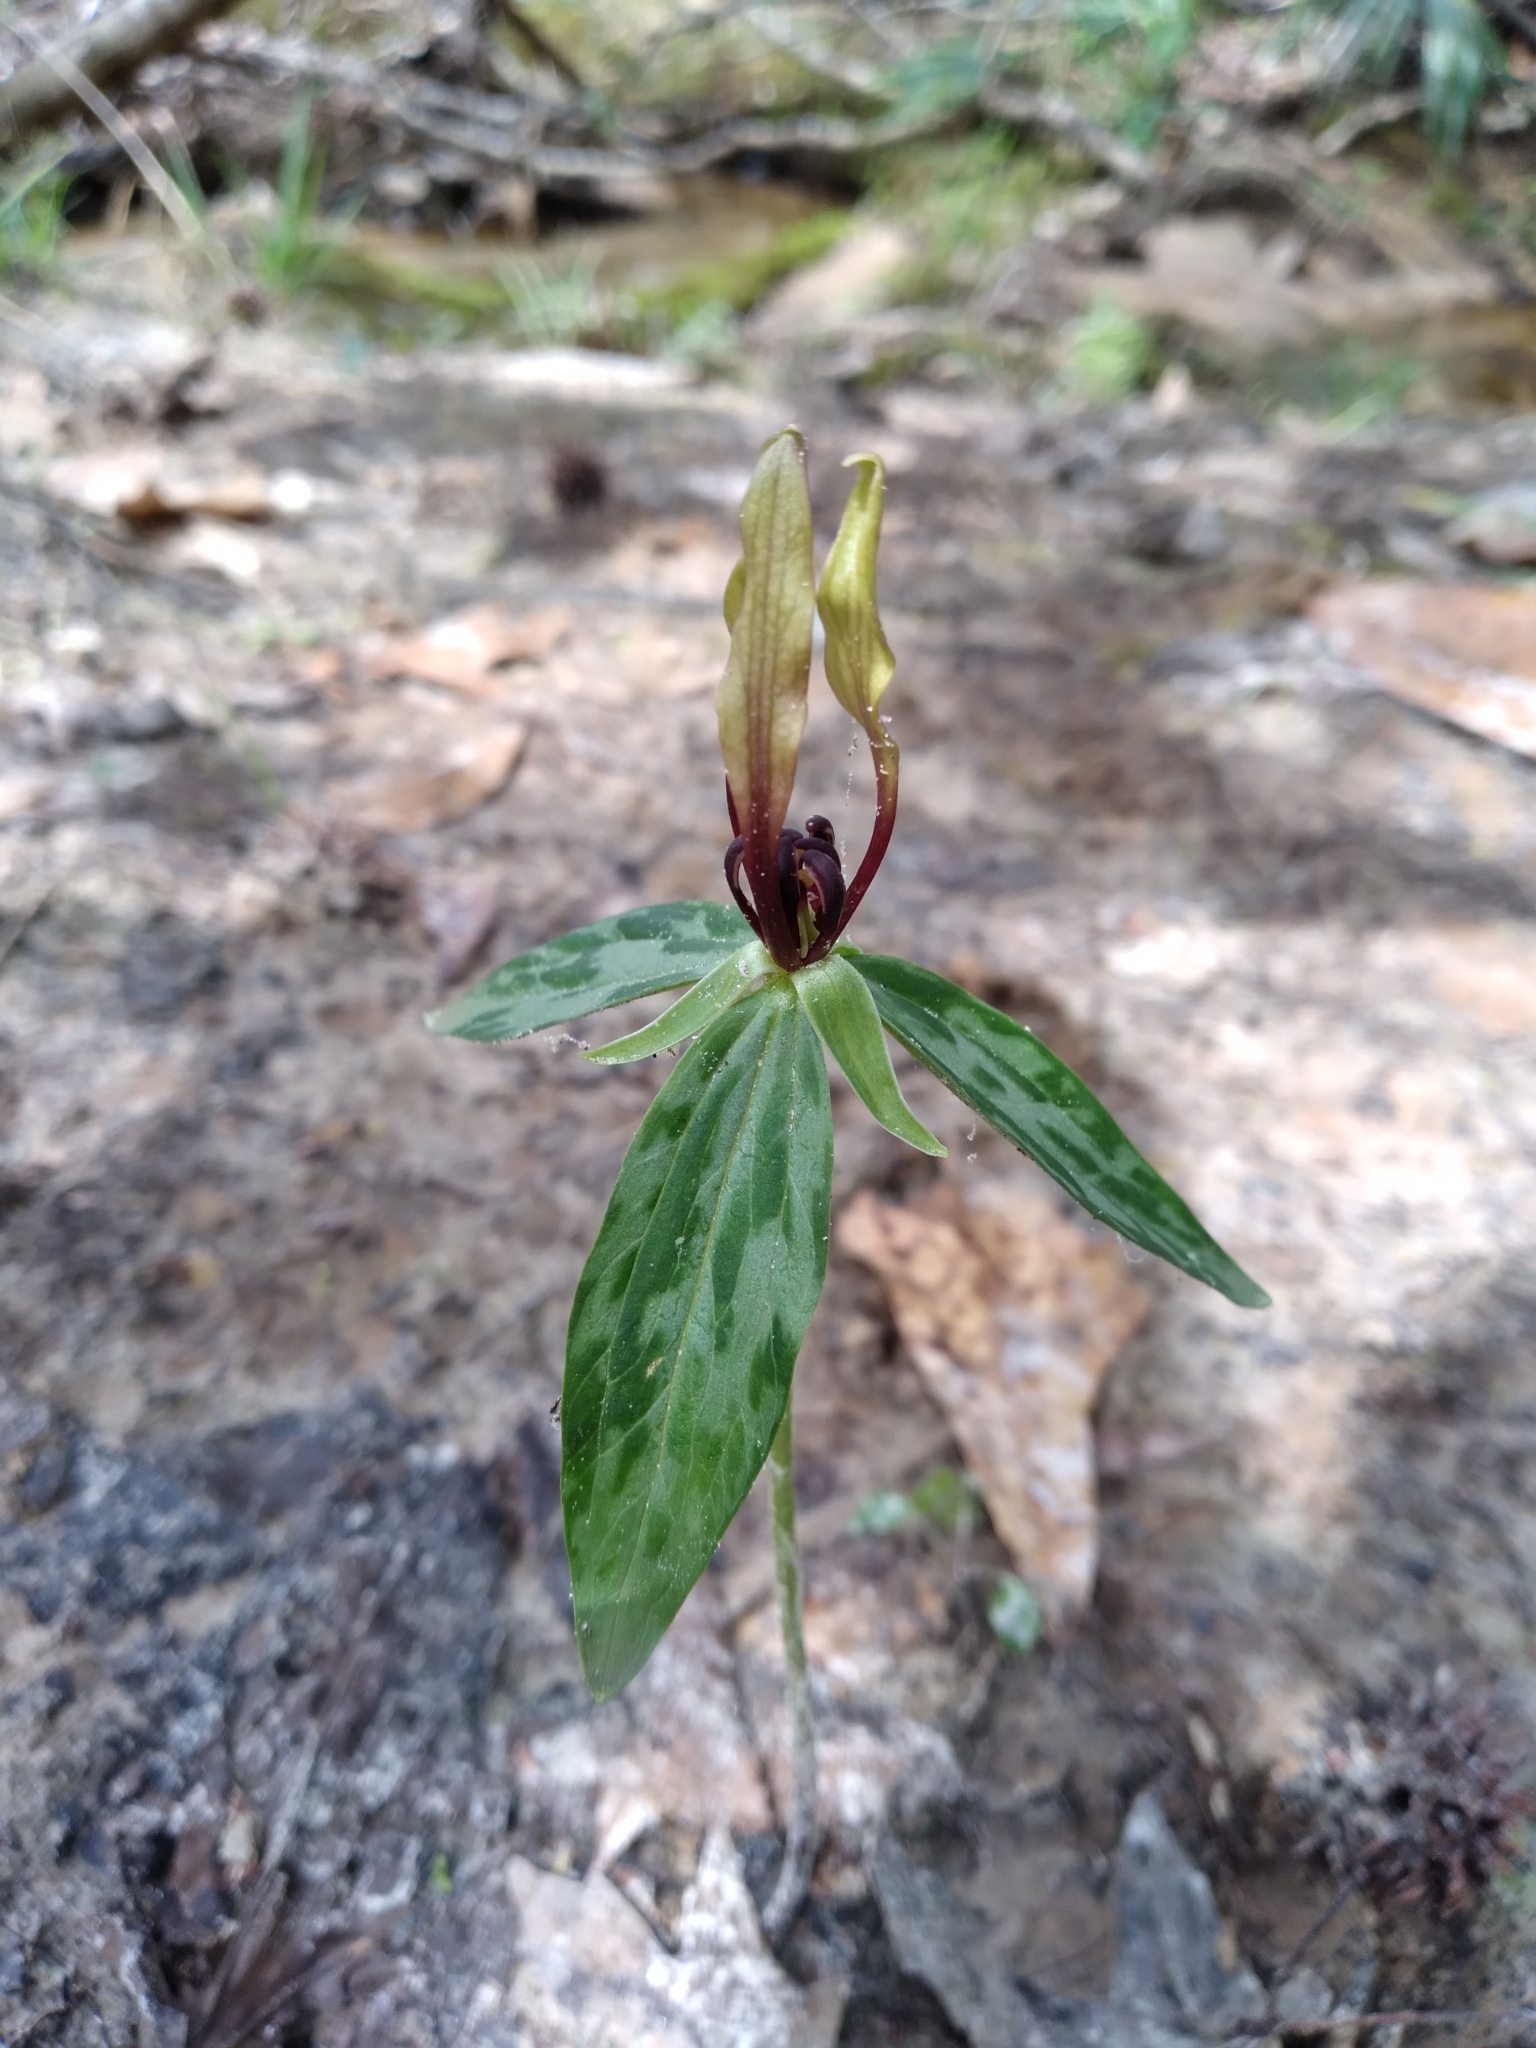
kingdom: Plantae
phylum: Tracheophyta
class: Liliopsida
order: Liliales
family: Melanthiaceae
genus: Trillium
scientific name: Trillium lancifolium
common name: Lance-leaved trillium
